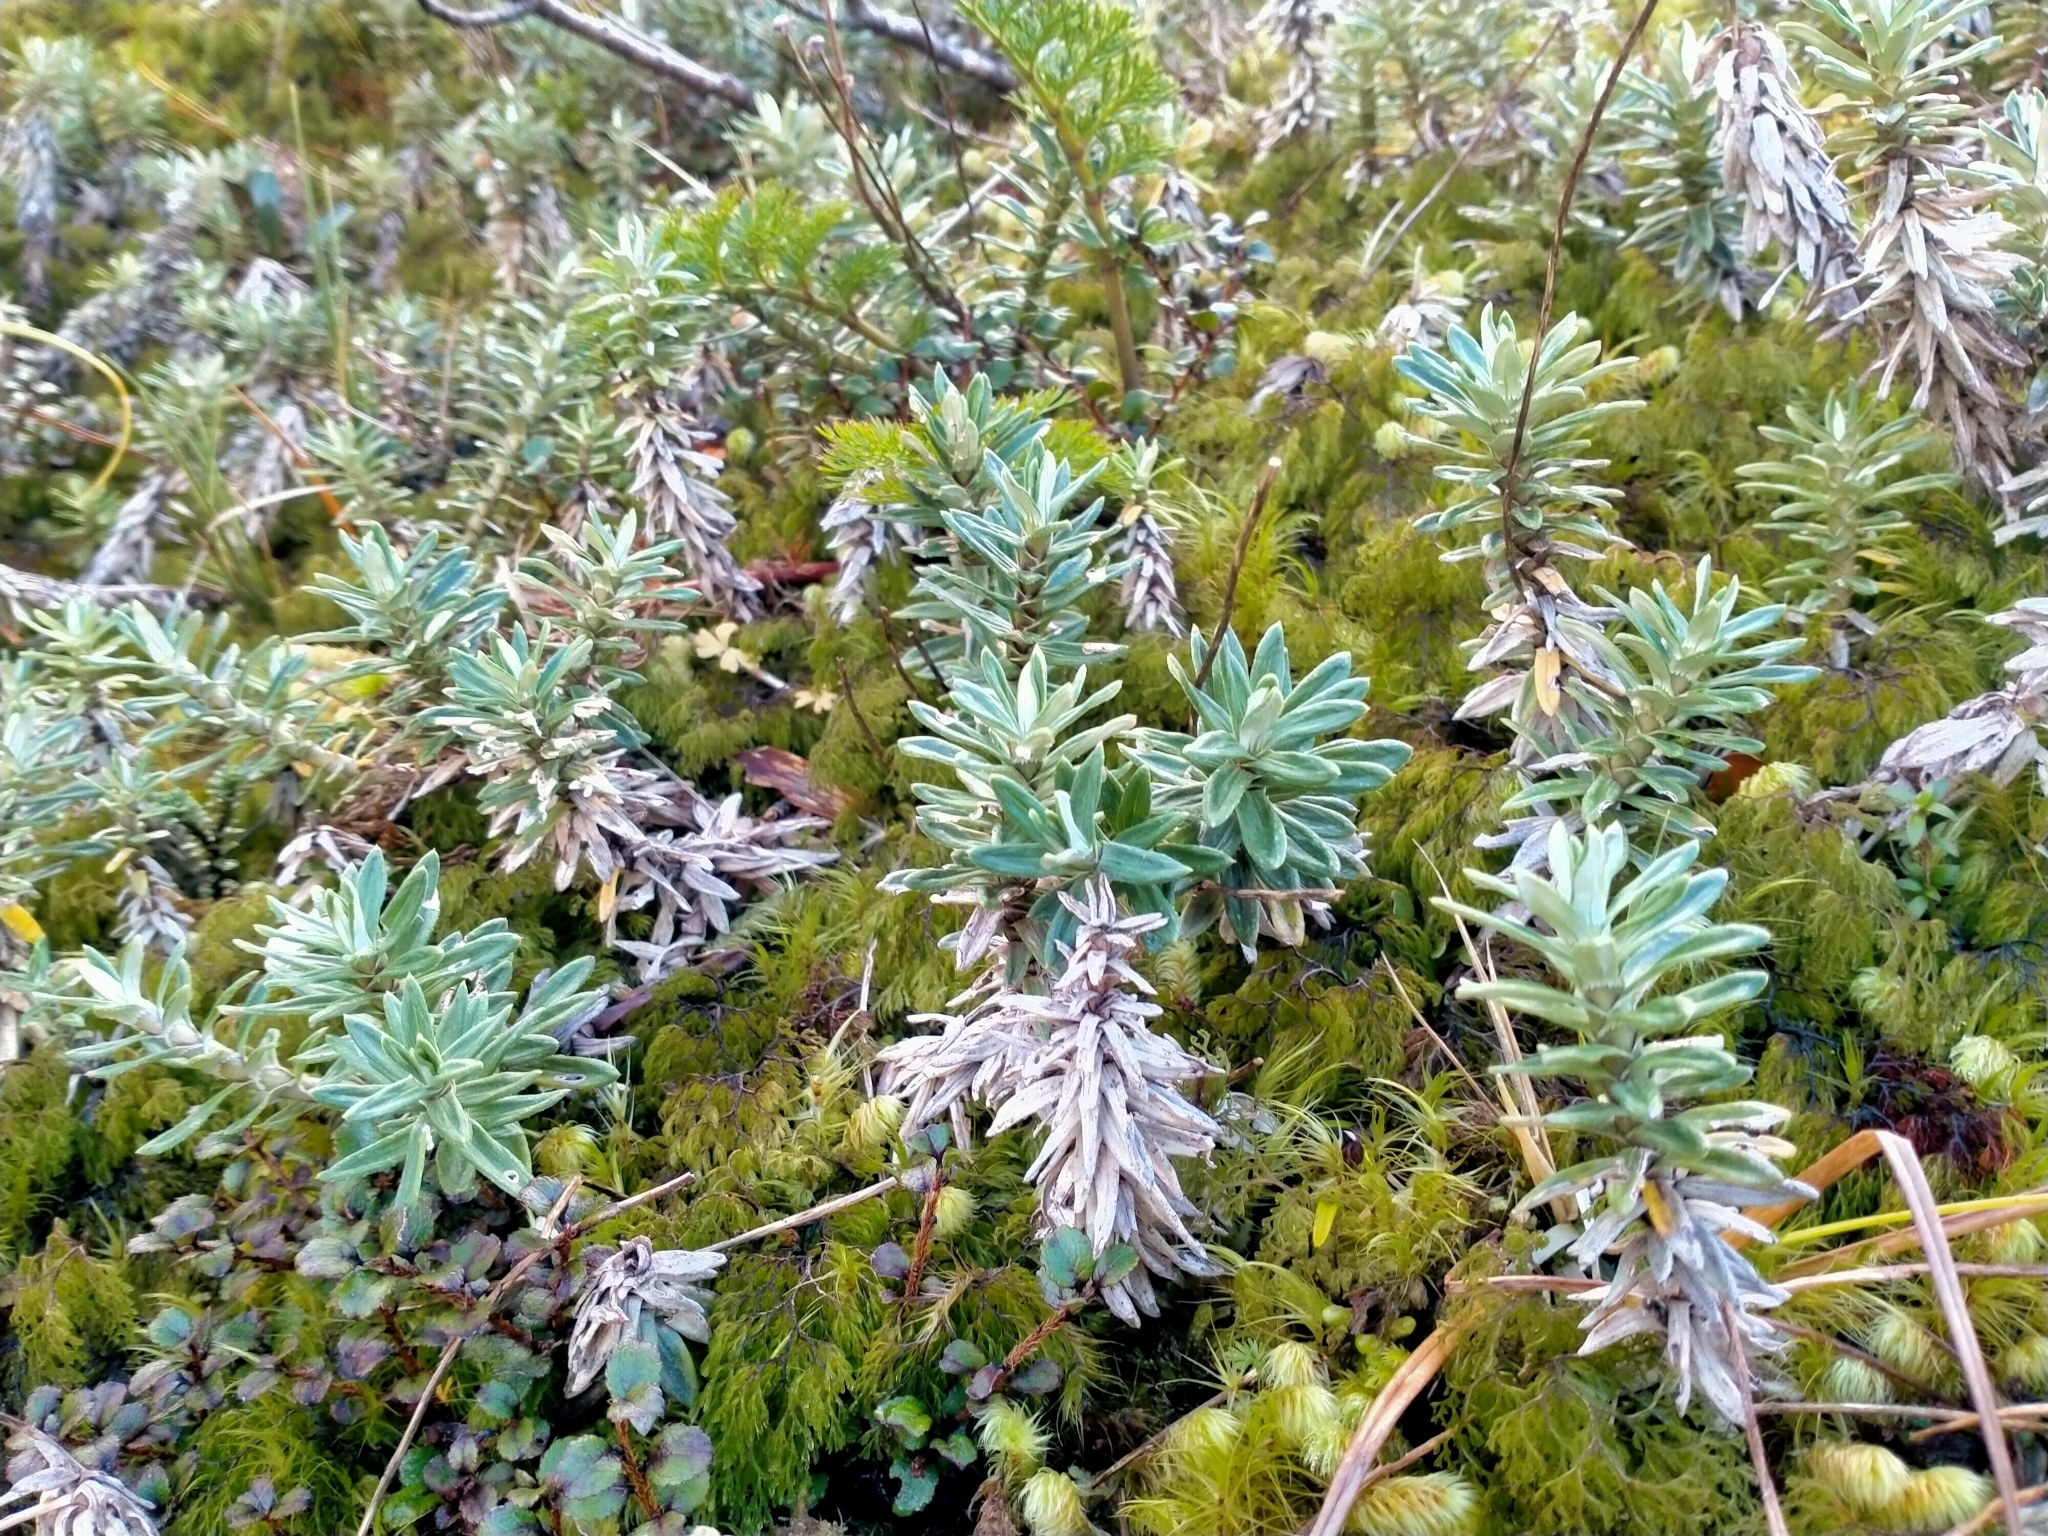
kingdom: Plantae
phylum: Tracheophyta
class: Magnoliopsida
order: Asterales
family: Asteraceae
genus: Celmisia
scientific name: Celmisia walkeri
